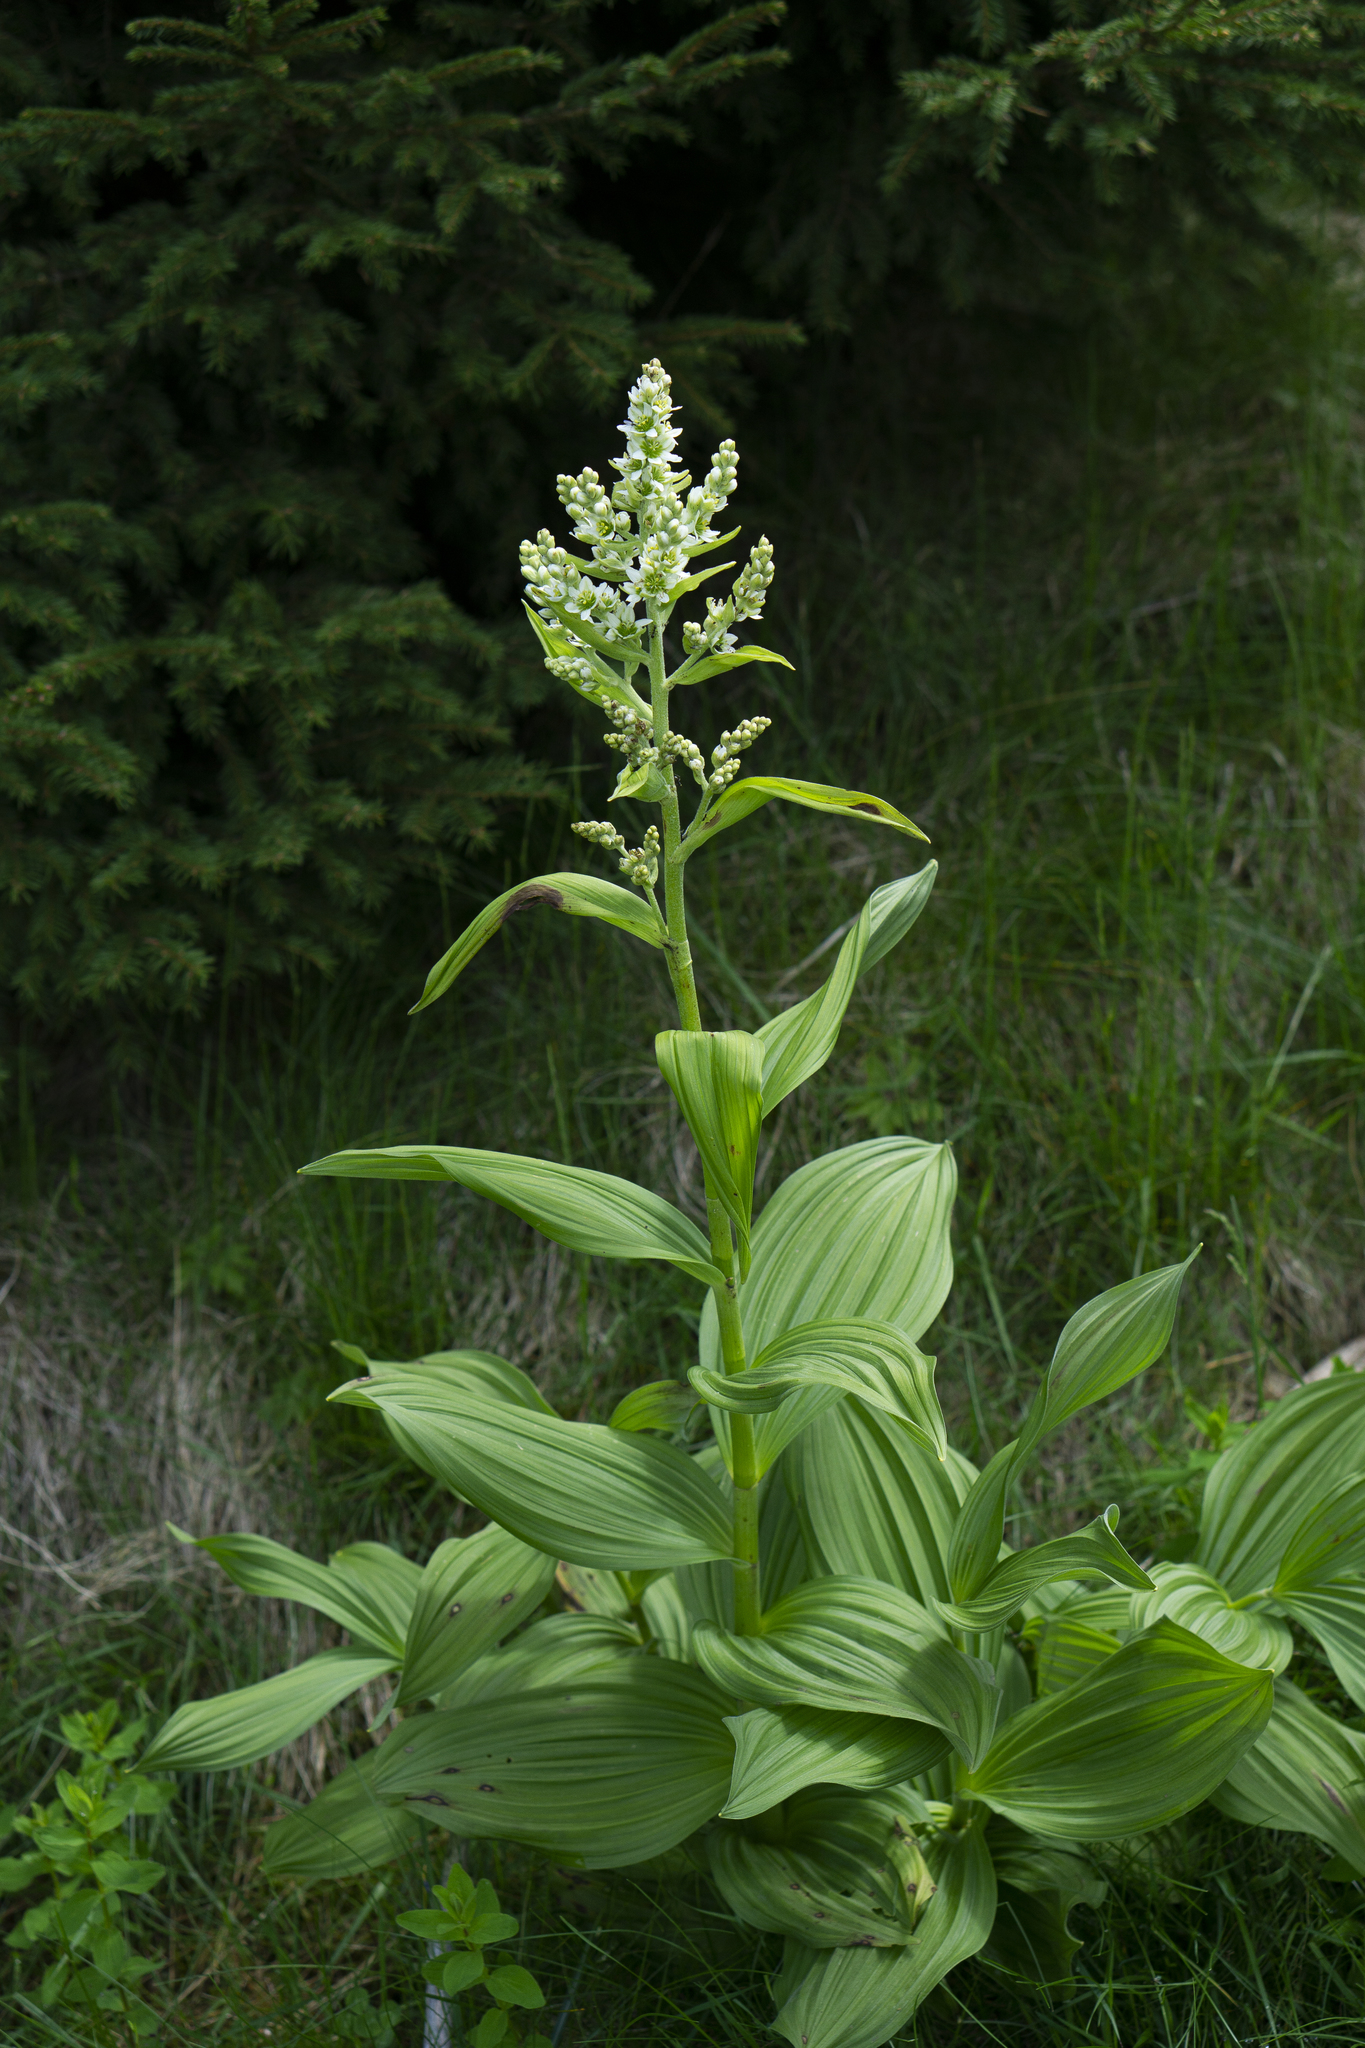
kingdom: Plantae
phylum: Tracheophyta
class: Liliopsida
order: Liliales
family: Melanthiaceae
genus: Veratrum
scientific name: Veratrum album
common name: White veratrum
